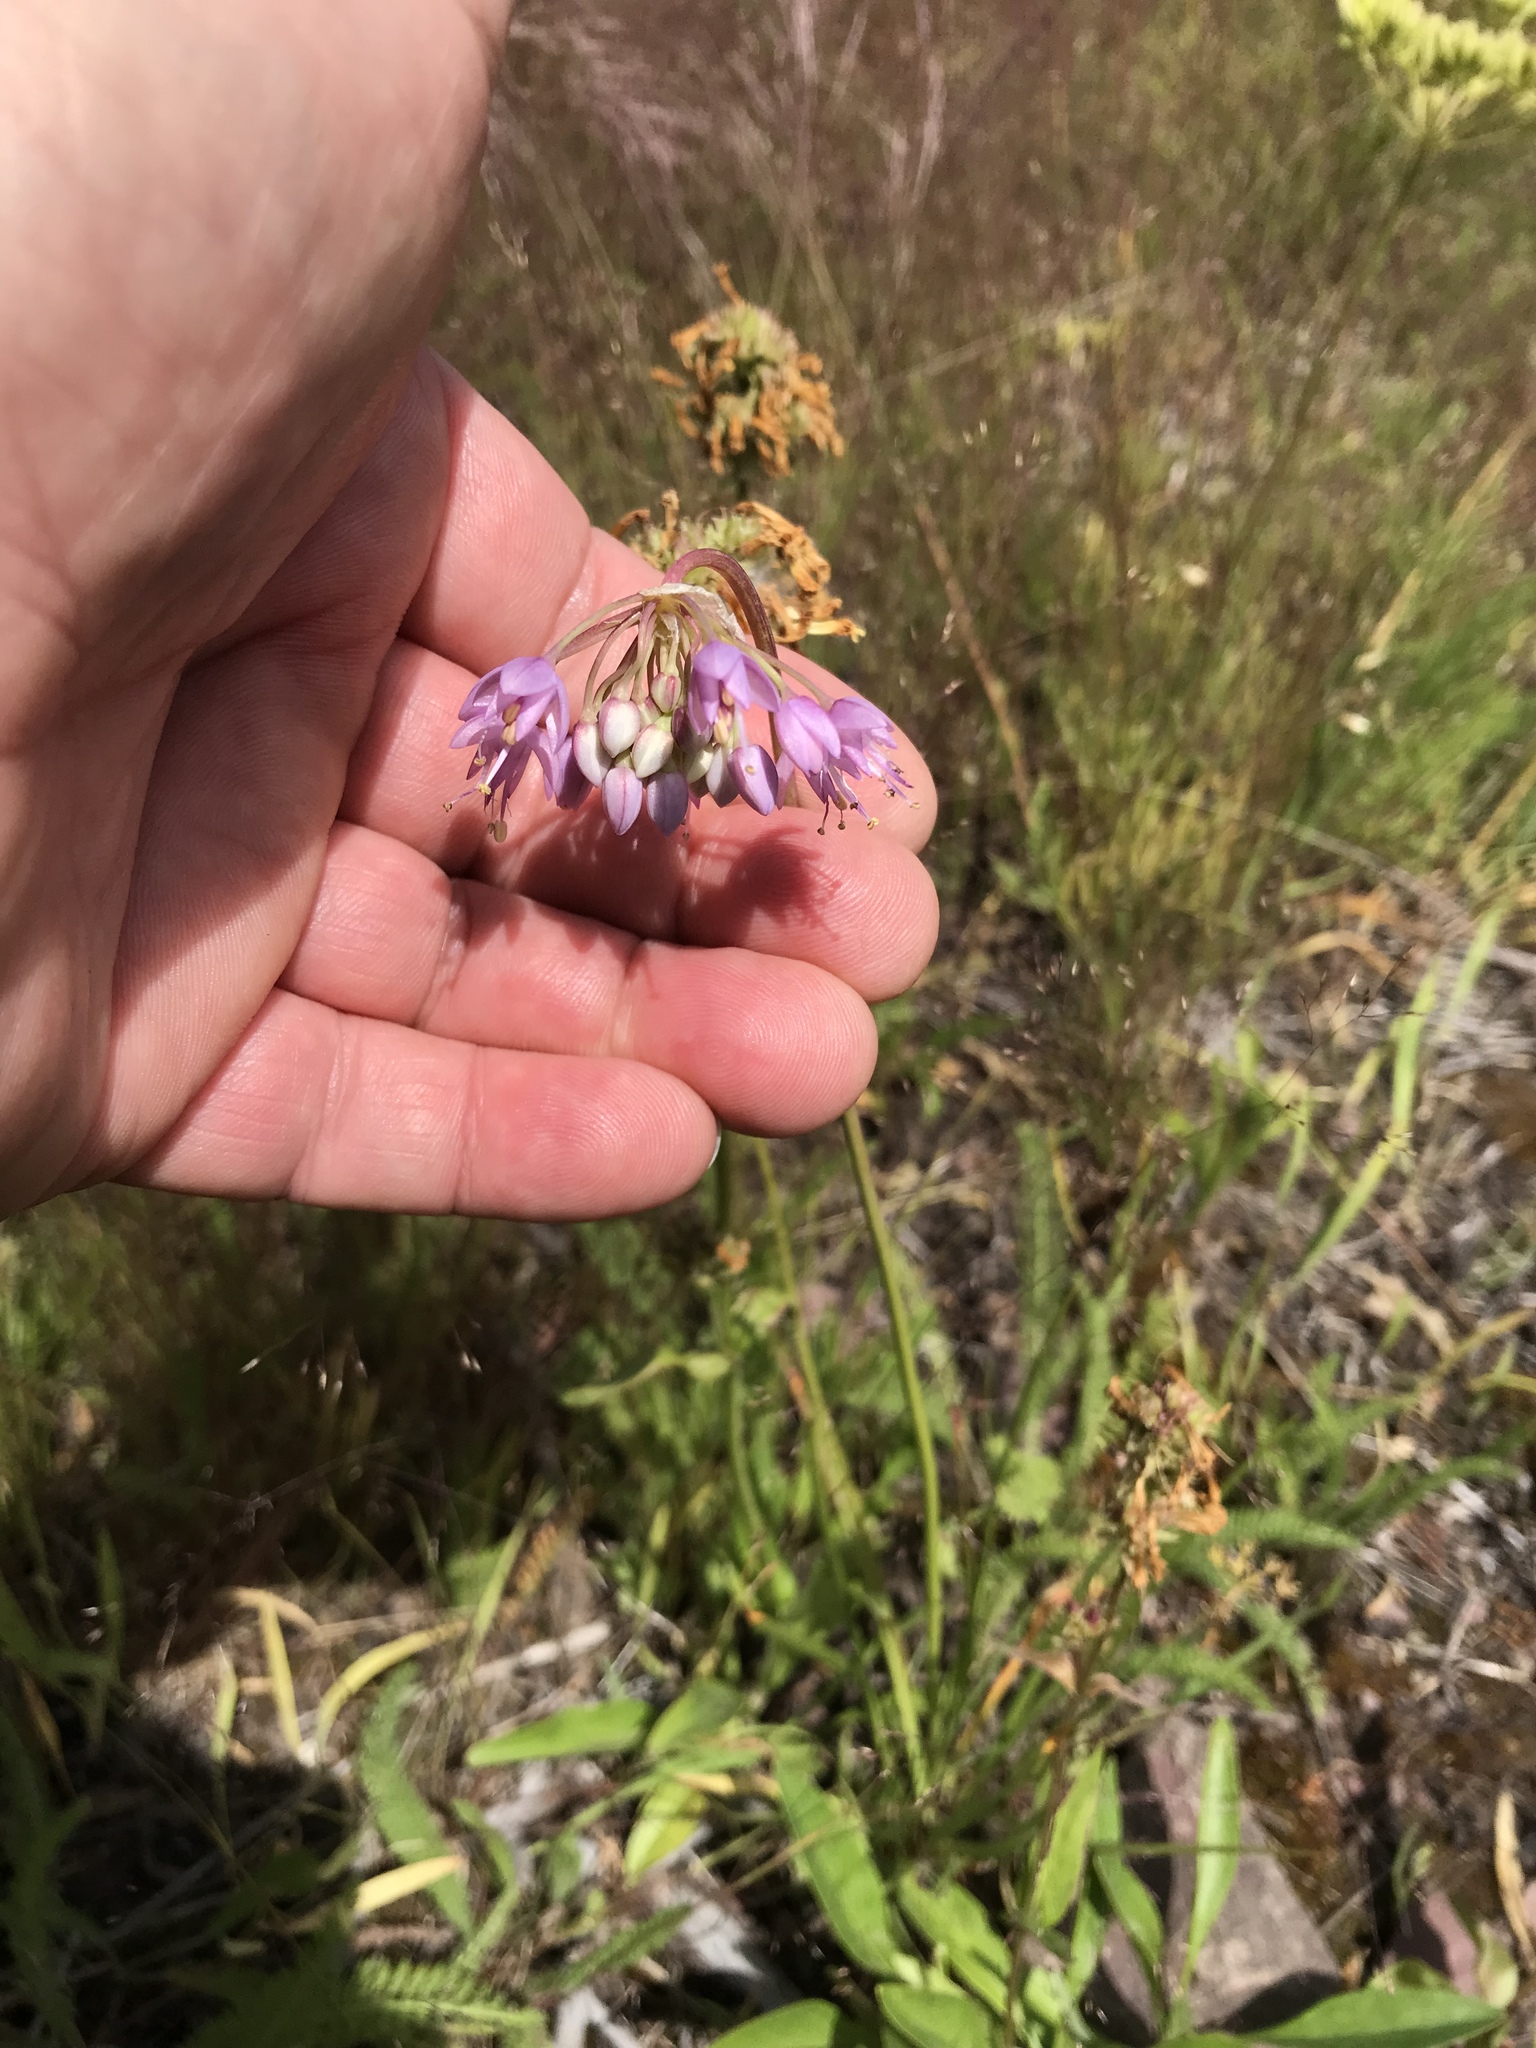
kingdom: Plantae
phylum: Tracheophyta
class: Liliopsida
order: Asparagales
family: Amaryllidaceae
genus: Allium
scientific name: Allium cernuum
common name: Nodding onion
